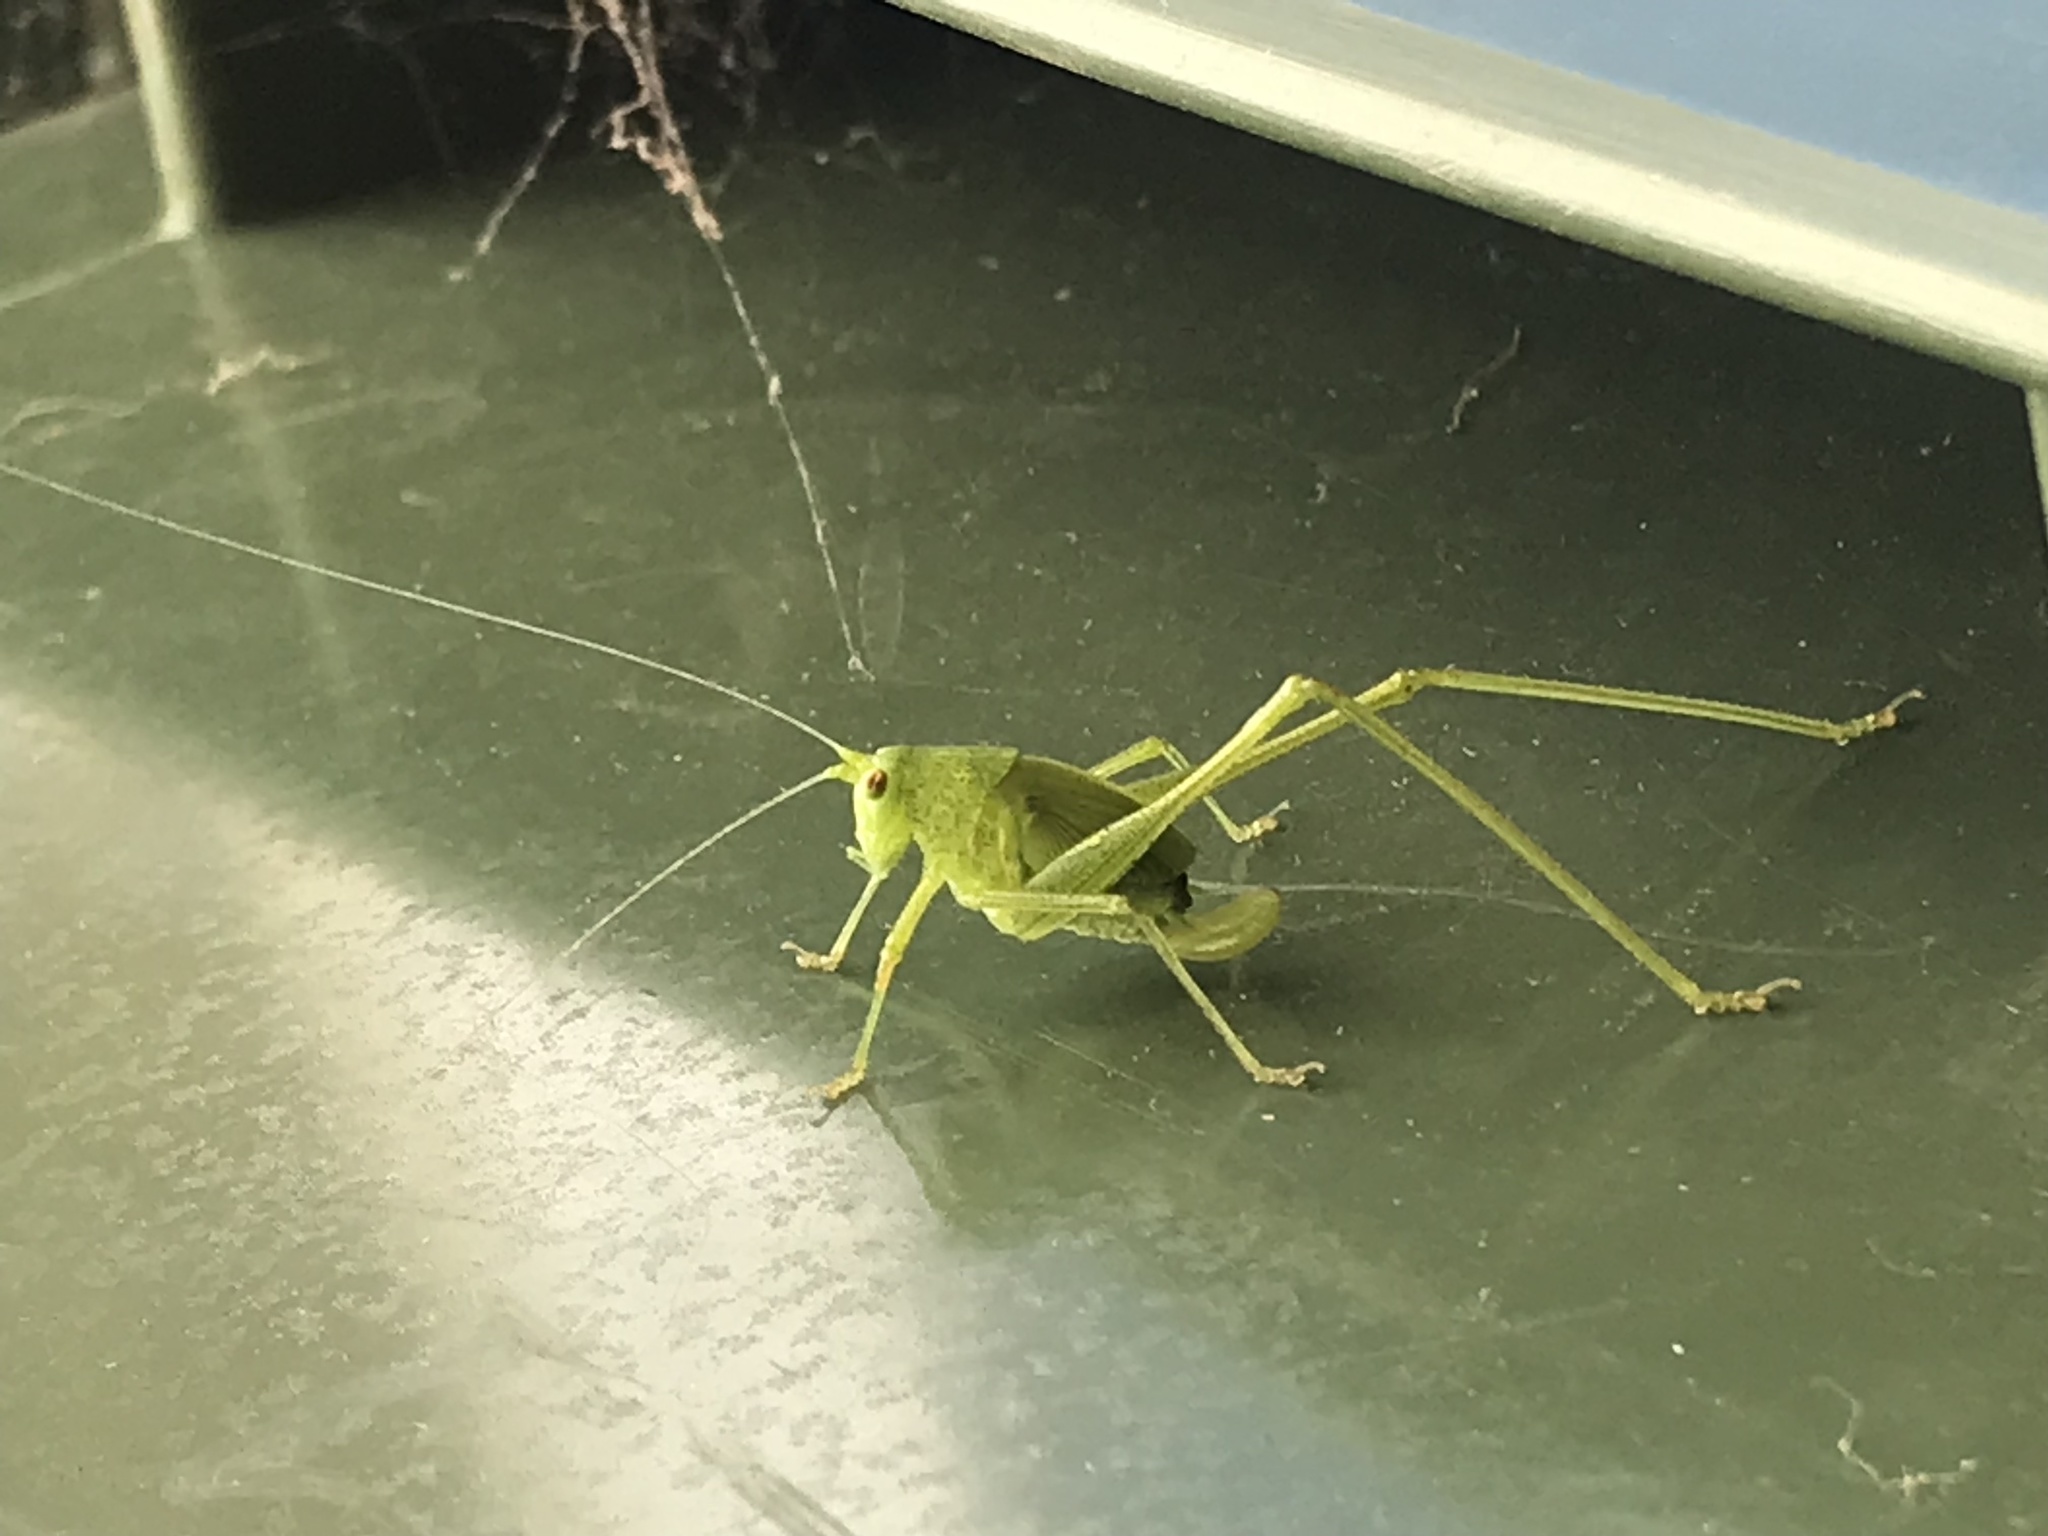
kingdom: Animalia
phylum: Arthropoda
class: Insecta
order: Orthoptera
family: Tettigoniidae
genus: Phaneroptera
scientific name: Phaneroptera nana
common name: Southern sickle bush-cricket
